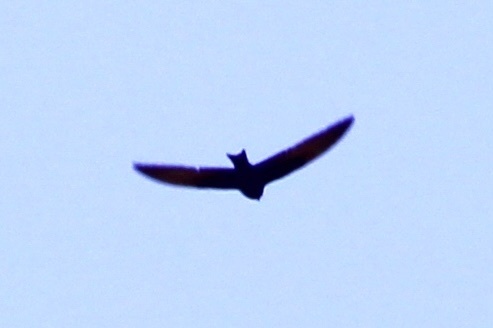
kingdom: Animalia
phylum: Chordata
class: Aves
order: Passeriformes
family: Hirundinidae
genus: Progne
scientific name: Progne subis
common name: Purple martin
